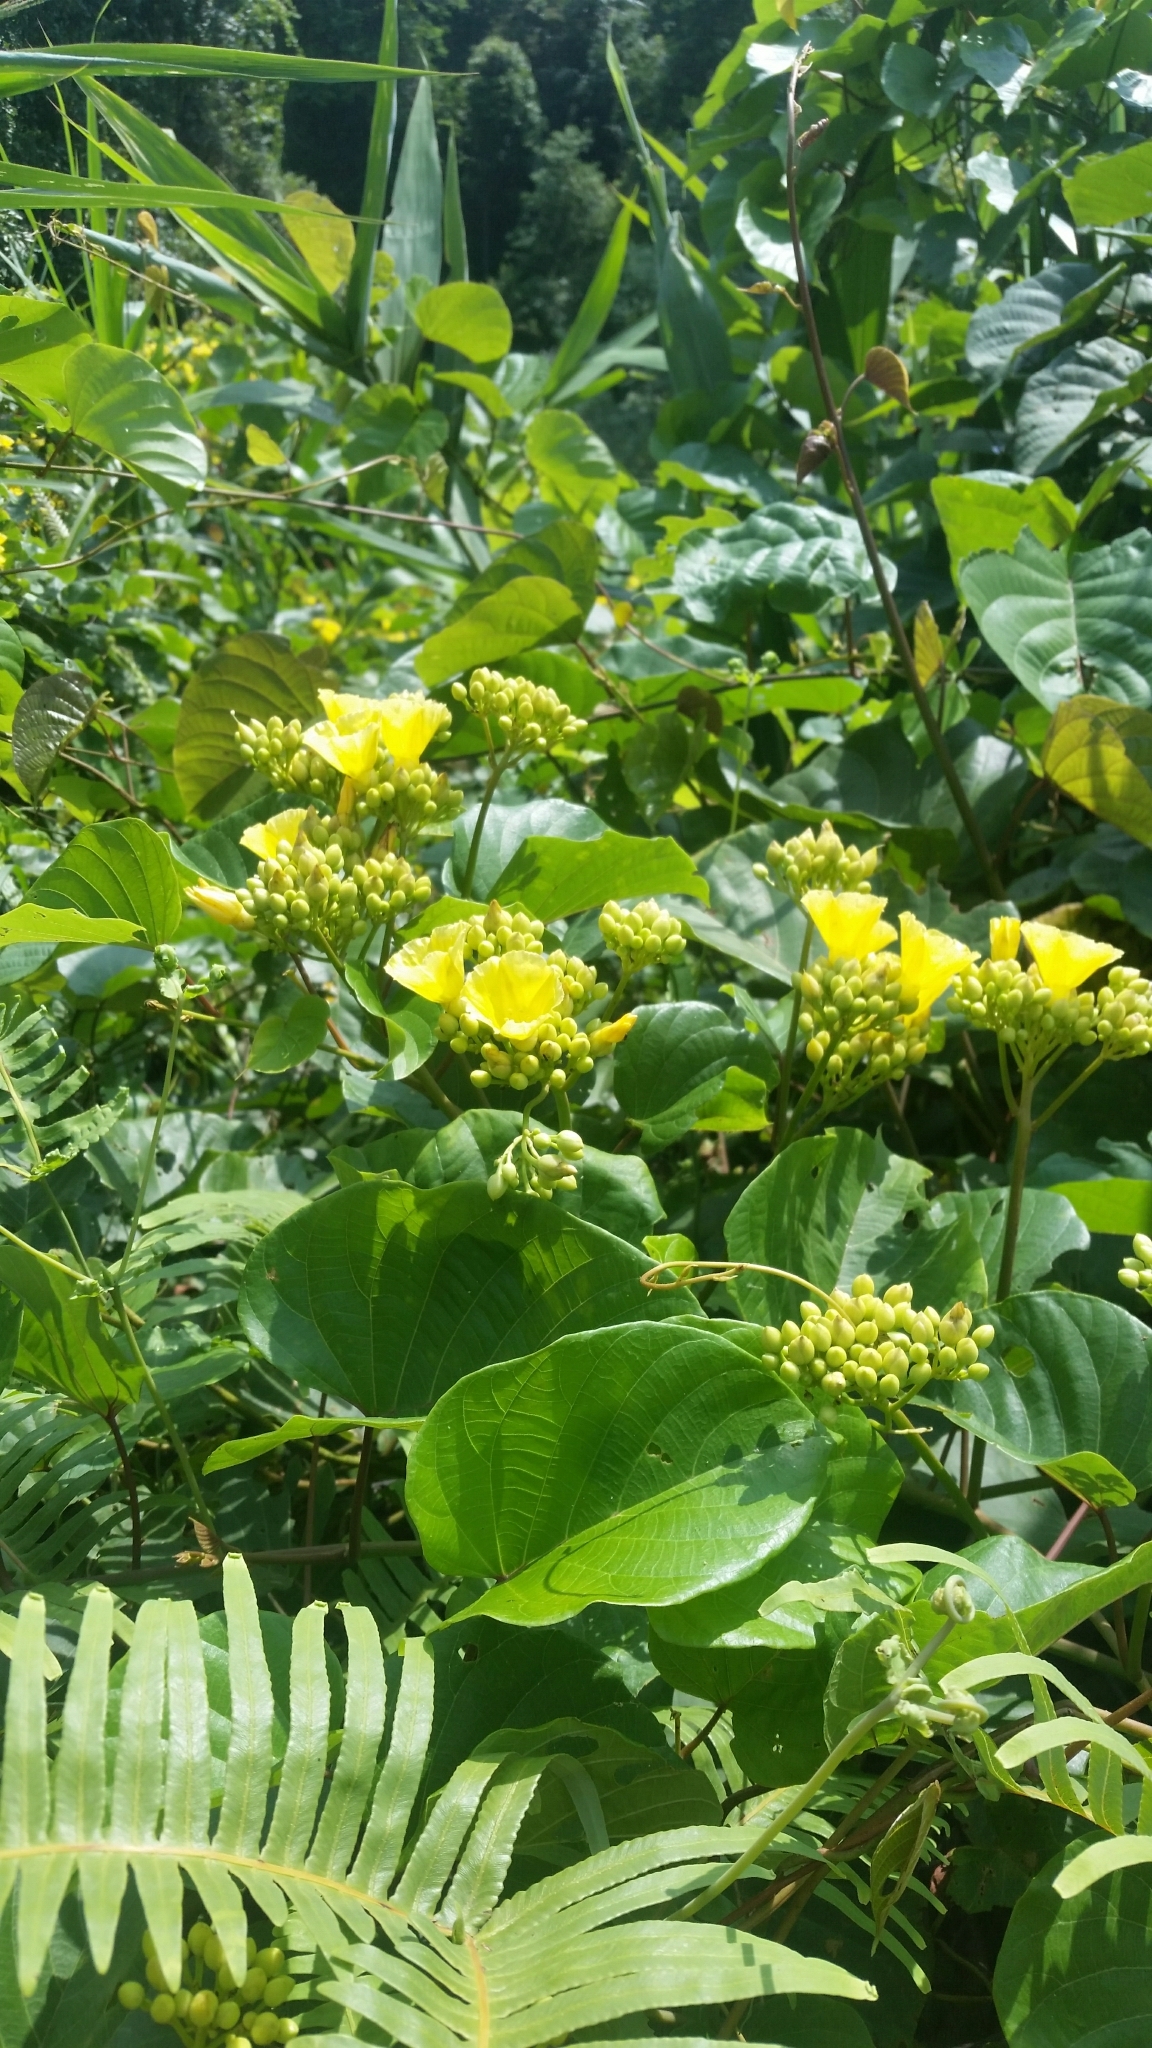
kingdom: Plantae
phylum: Tracheophyta
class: Magnoliopsida
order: Solanales
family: Convolvulaceae
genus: Decalobanthus
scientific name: Decalobanthus boisianus
